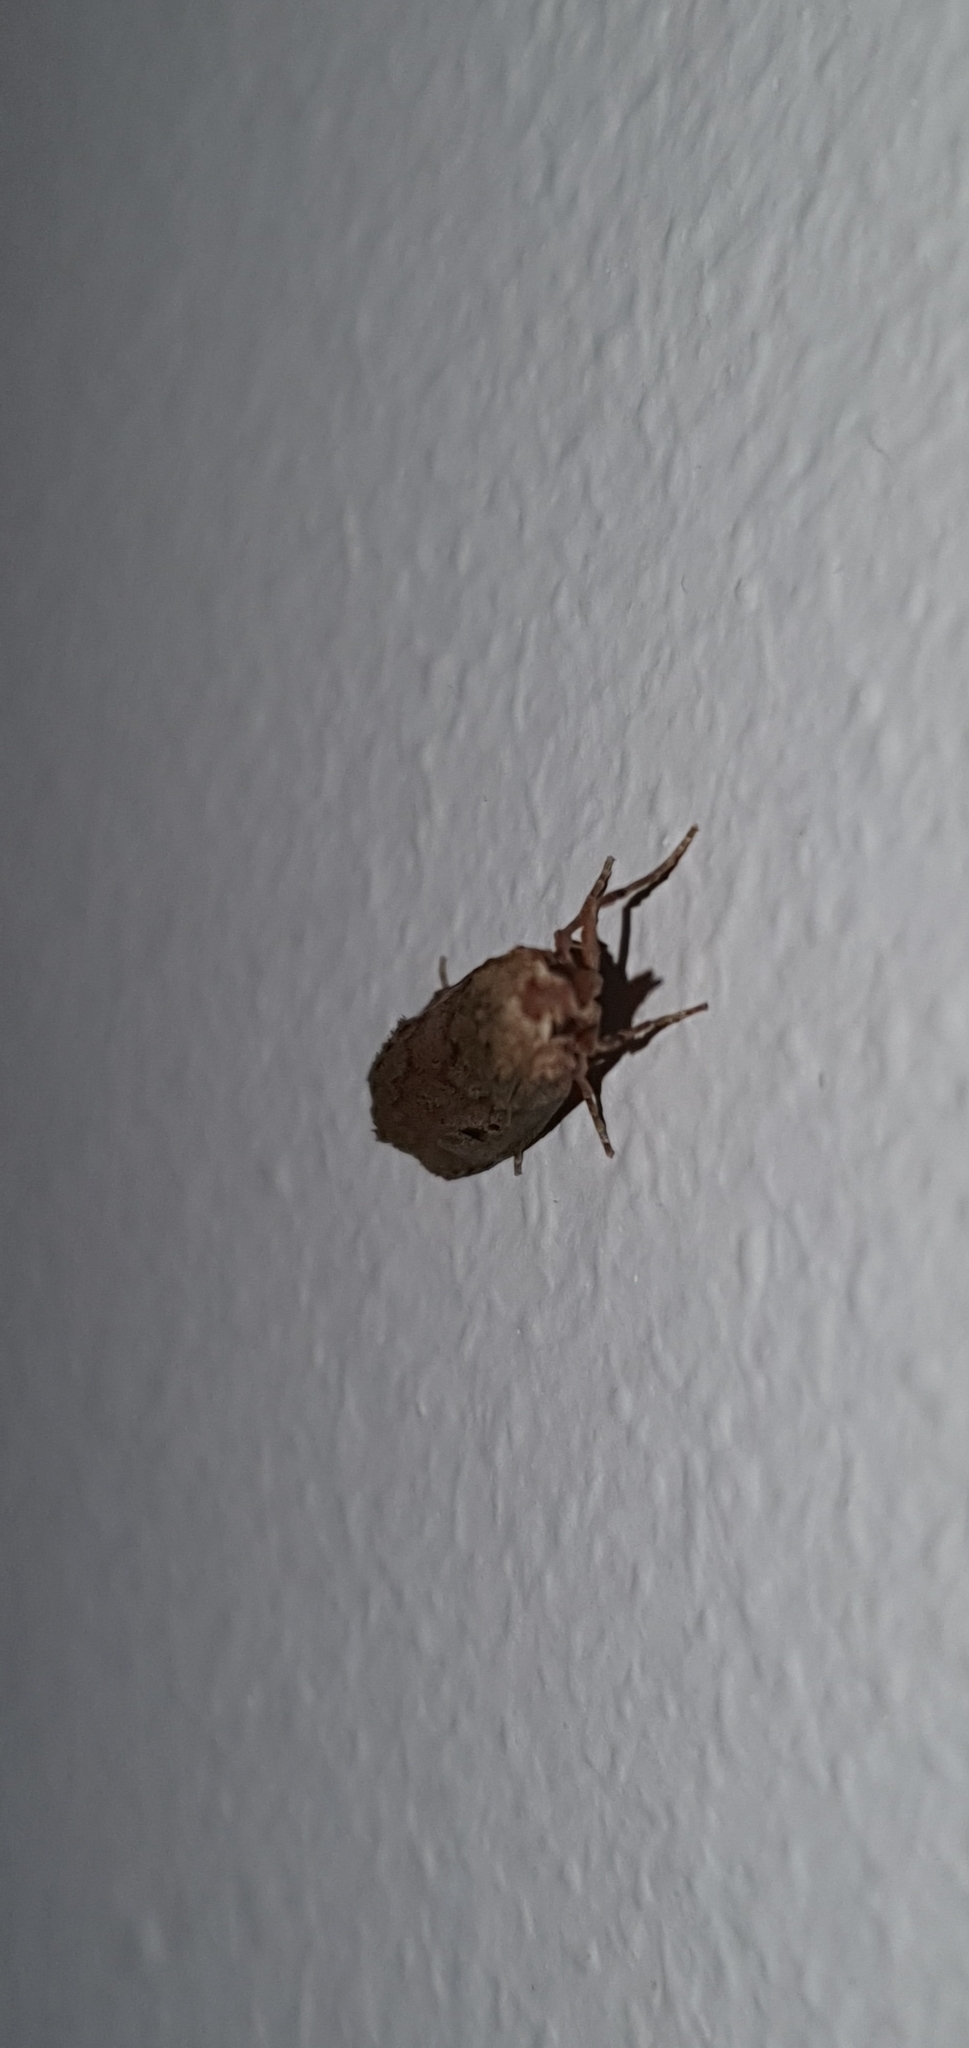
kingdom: Animalia
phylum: Arthropoda
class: Insecta
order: Lepidoptera
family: Pyralidae
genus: Aphomia
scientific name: Aphomia sociella
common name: Bee moth
